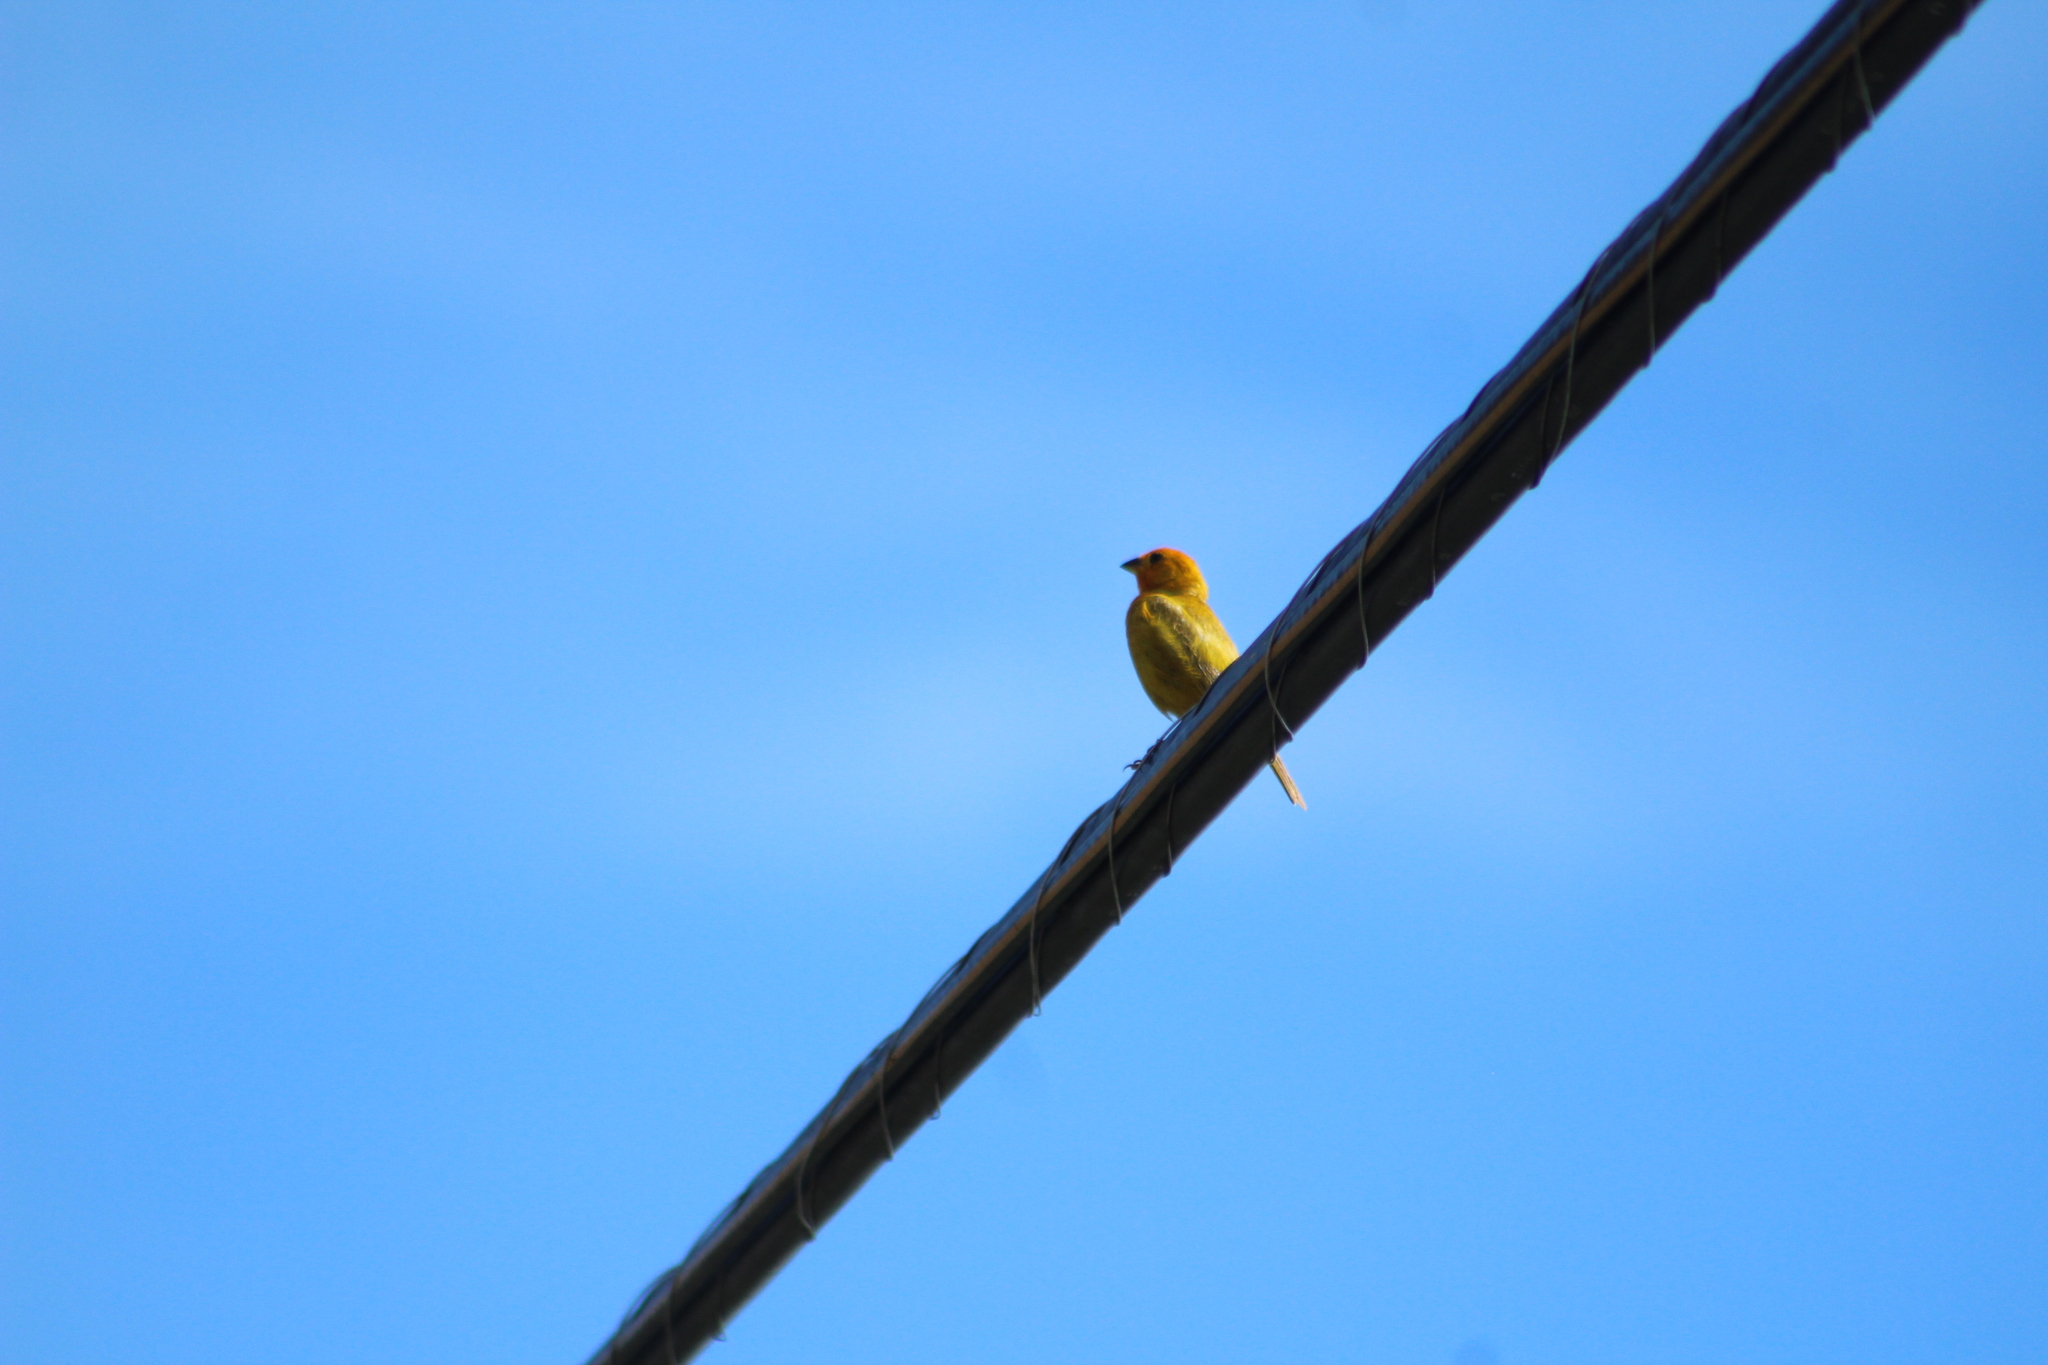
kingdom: Animalia
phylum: Chordata
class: Aves
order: Passeriformes
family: Thraupidae
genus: Sicalis
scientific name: Sicalis flaveola
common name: Saffron finch
